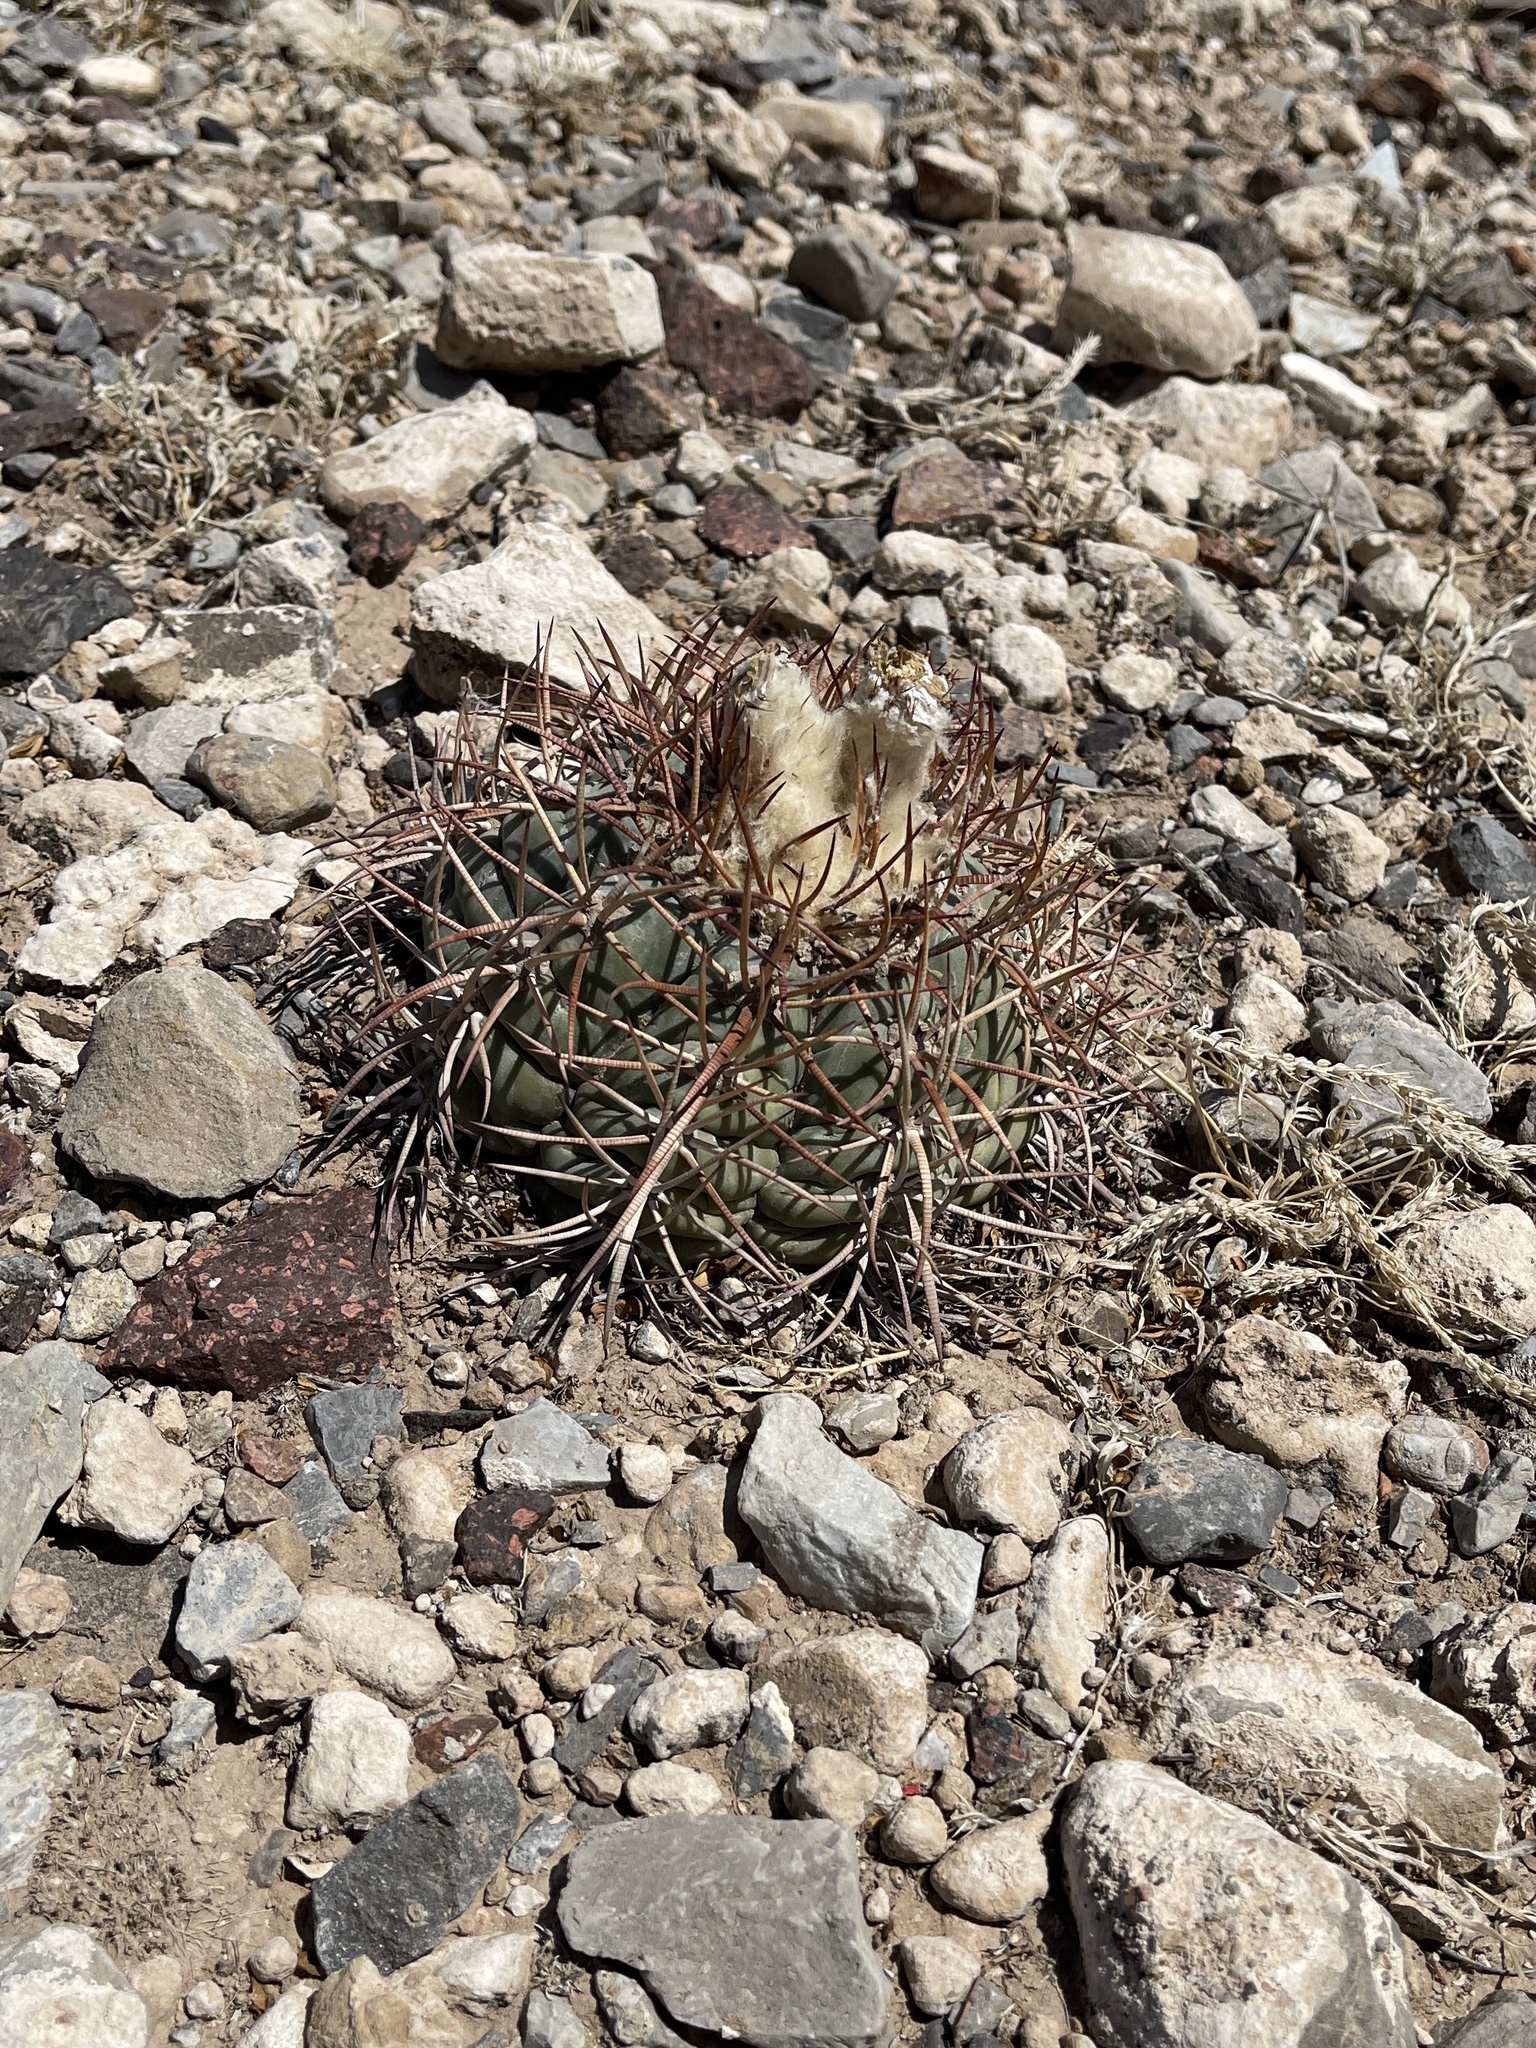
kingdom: Plantae
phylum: Tracheophyta
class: Magnoliopsida
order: Caryophyllales
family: Cactaceae
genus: Echinocactus
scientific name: Echinocactus horizonthalonius
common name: Devilshead
